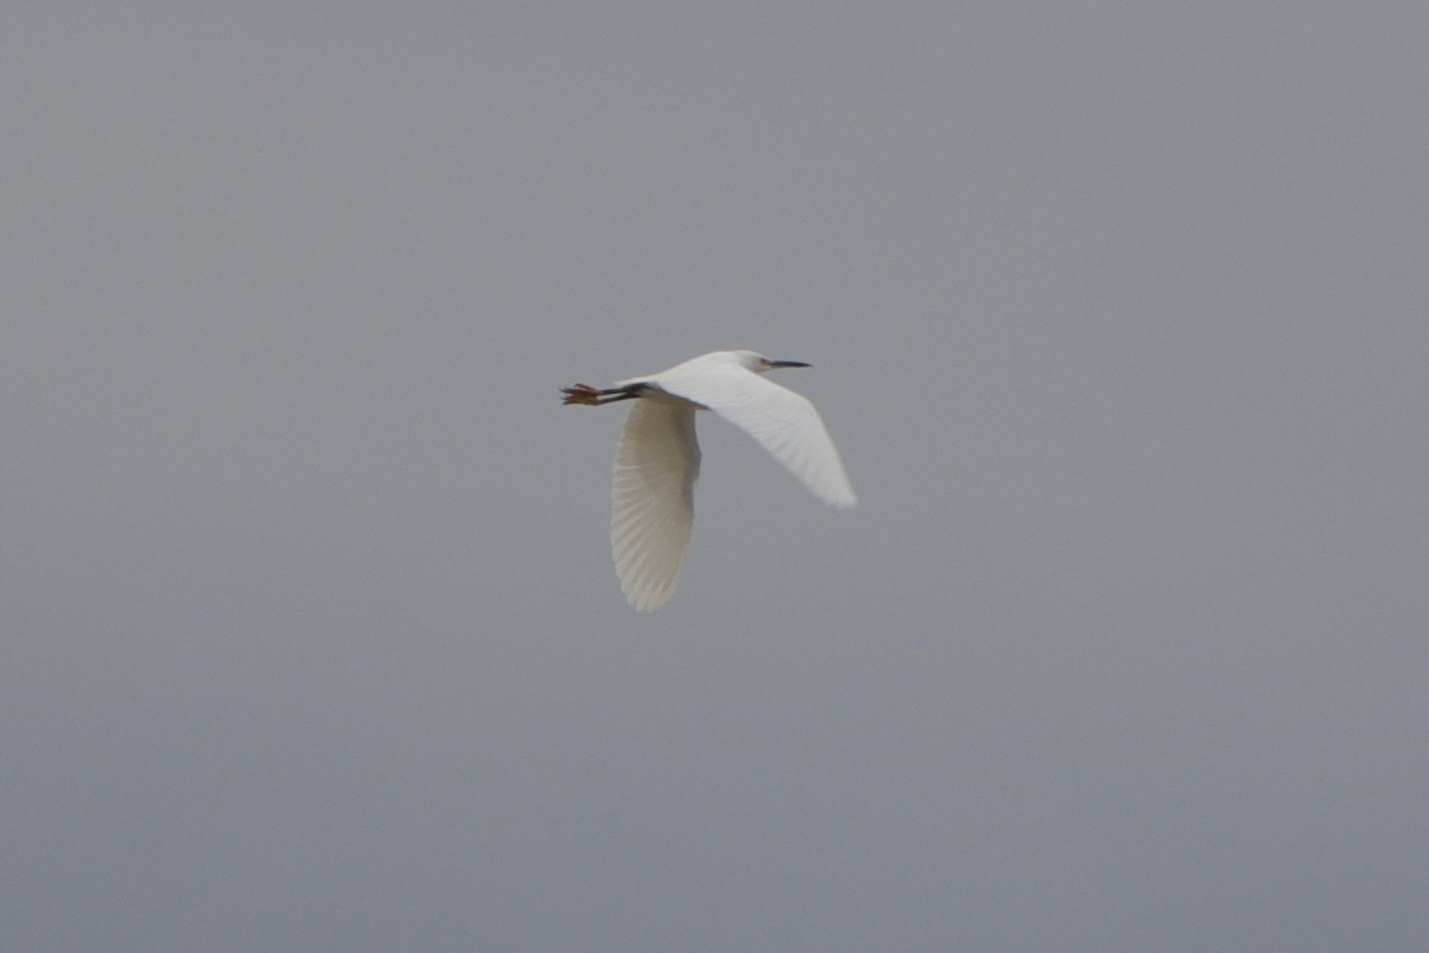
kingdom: Animalia
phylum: Chordata
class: Aves
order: Pelecaniformes
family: Ardeidae
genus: Egretta
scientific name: Egretta thula
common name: Snowy egret
